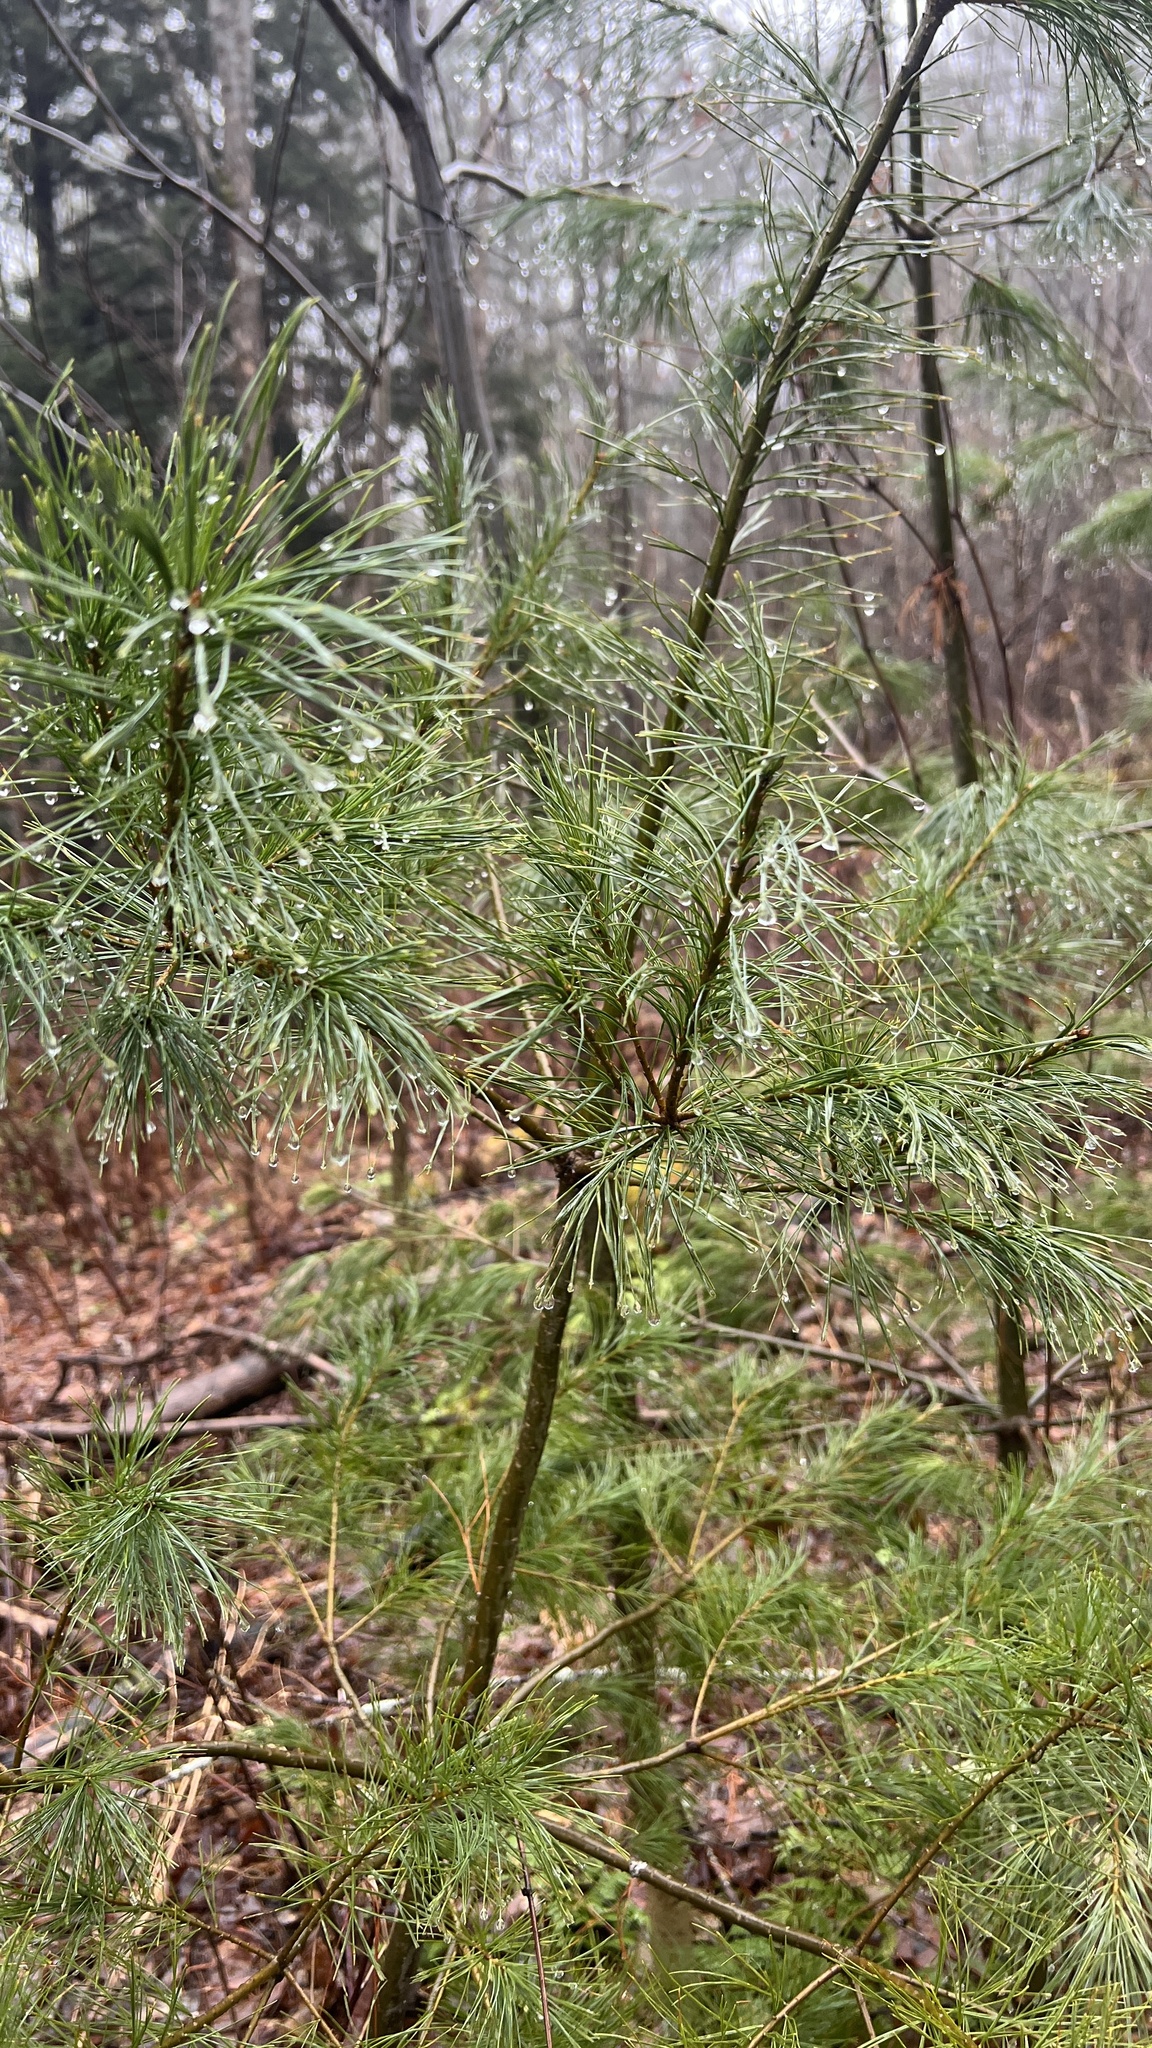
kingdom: Plantae
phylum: Tracheophyta
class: Pinopsida
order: Pinales
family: Pinaceae
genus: Pinus
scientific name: Pinus strobus
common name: Weymouth pine
